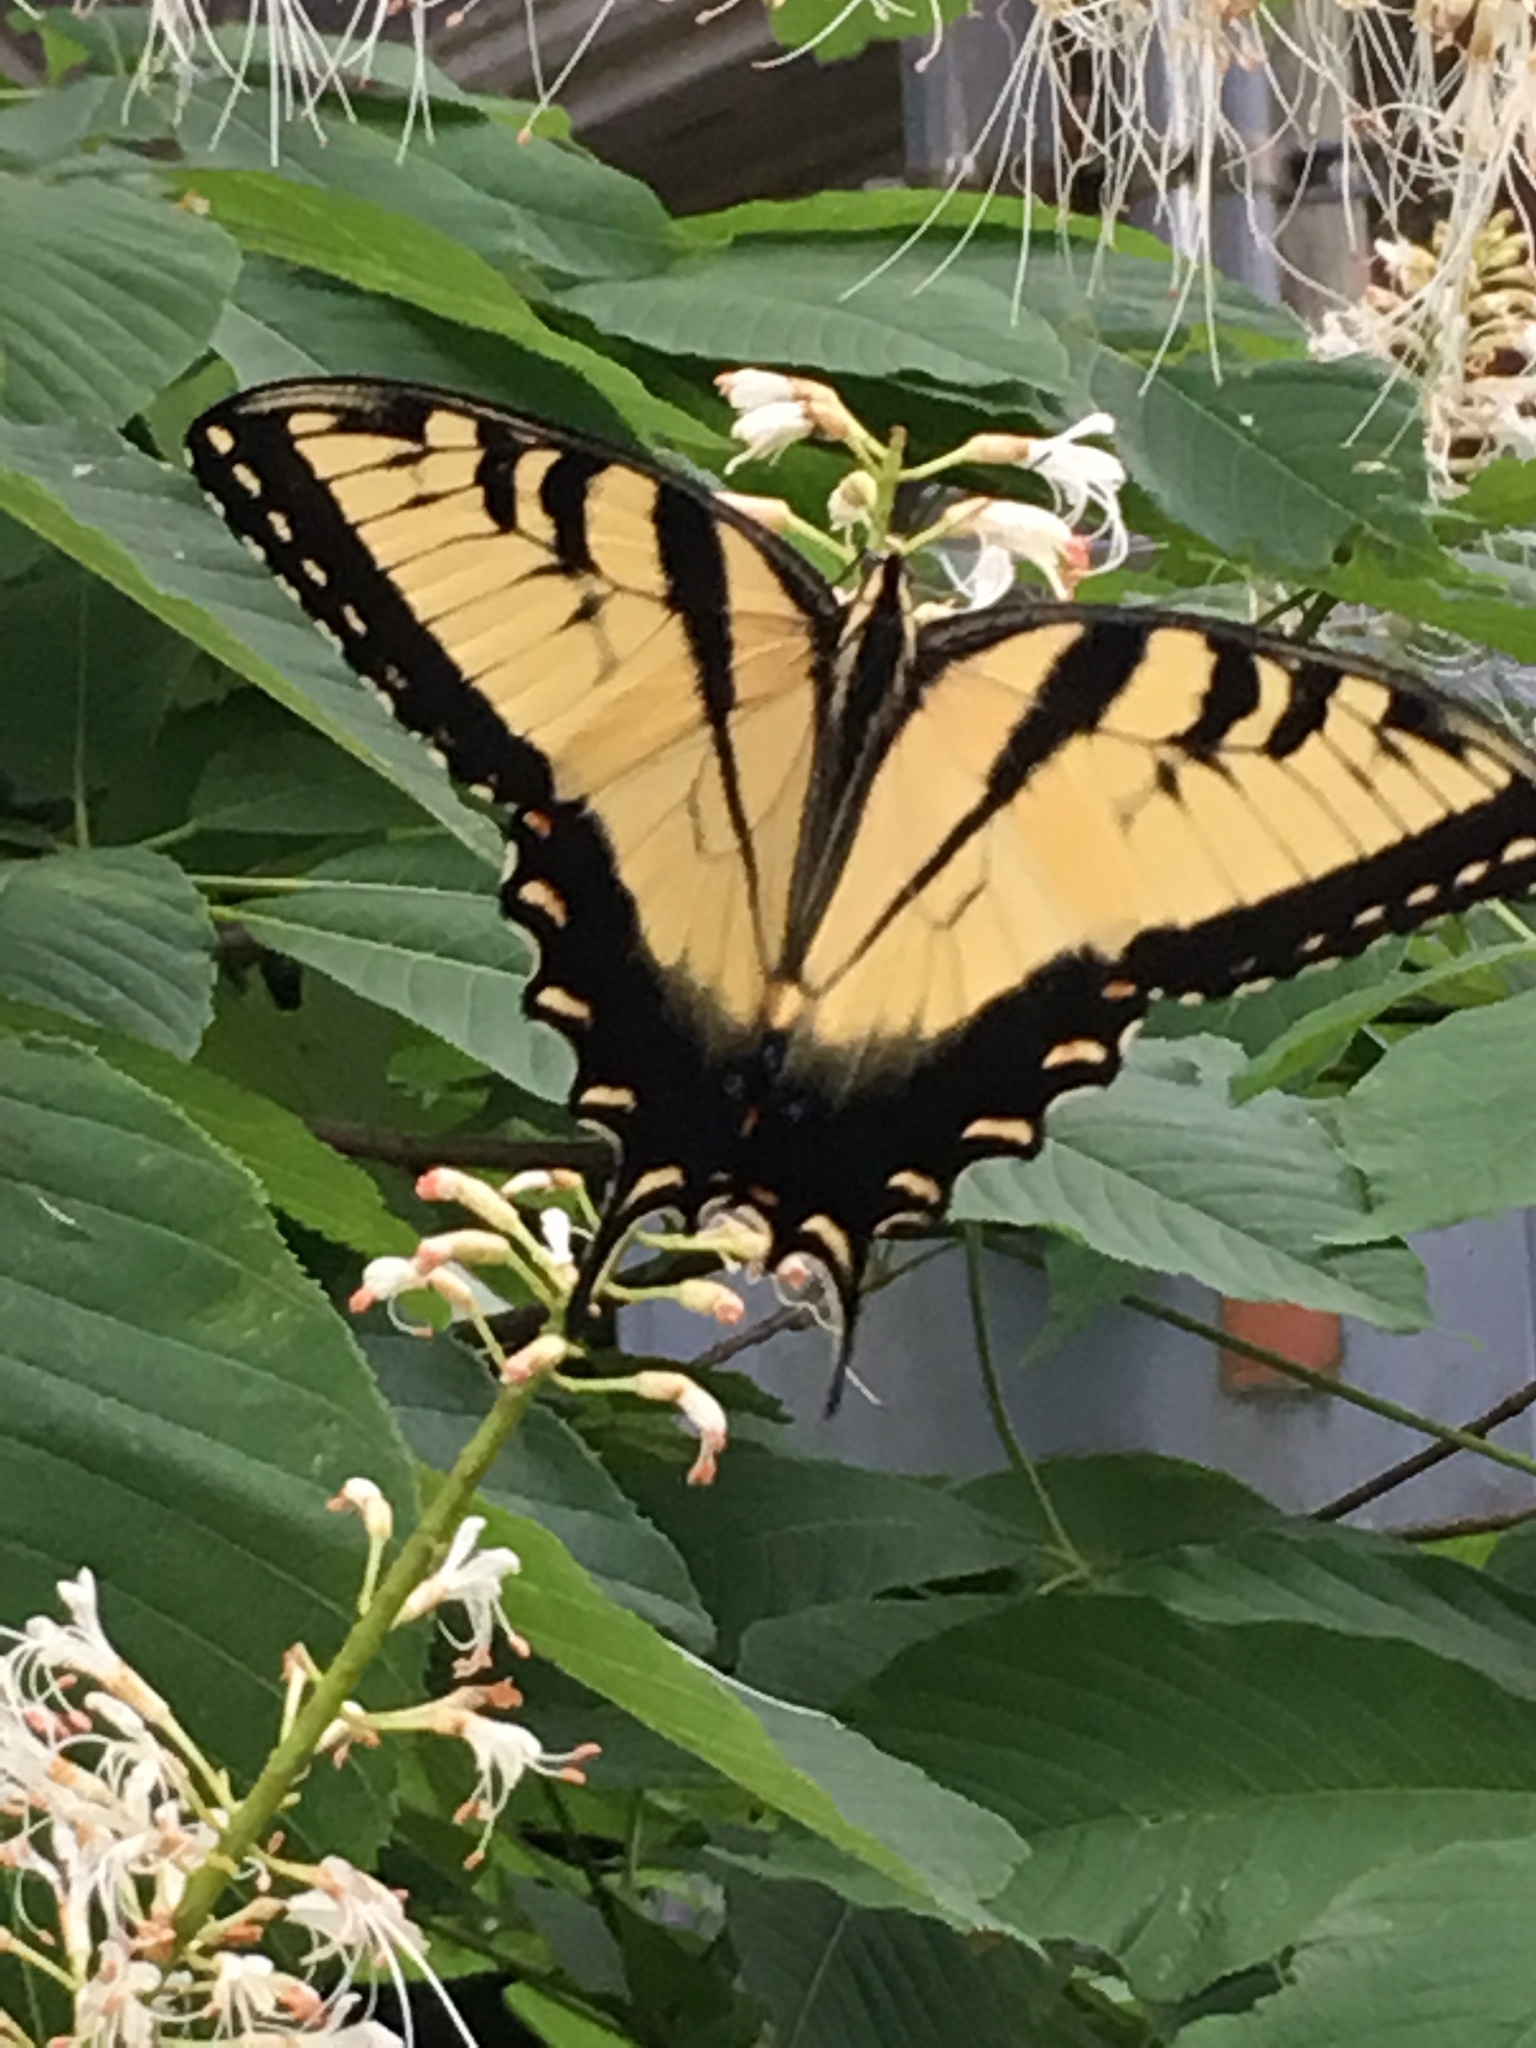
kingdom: Animalia
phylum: Arthropoda
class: Insecta
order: Lepidoptera
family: Papilionidae
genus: Papilio
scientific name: Papilio glaucus
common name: Tiger swallowtail
